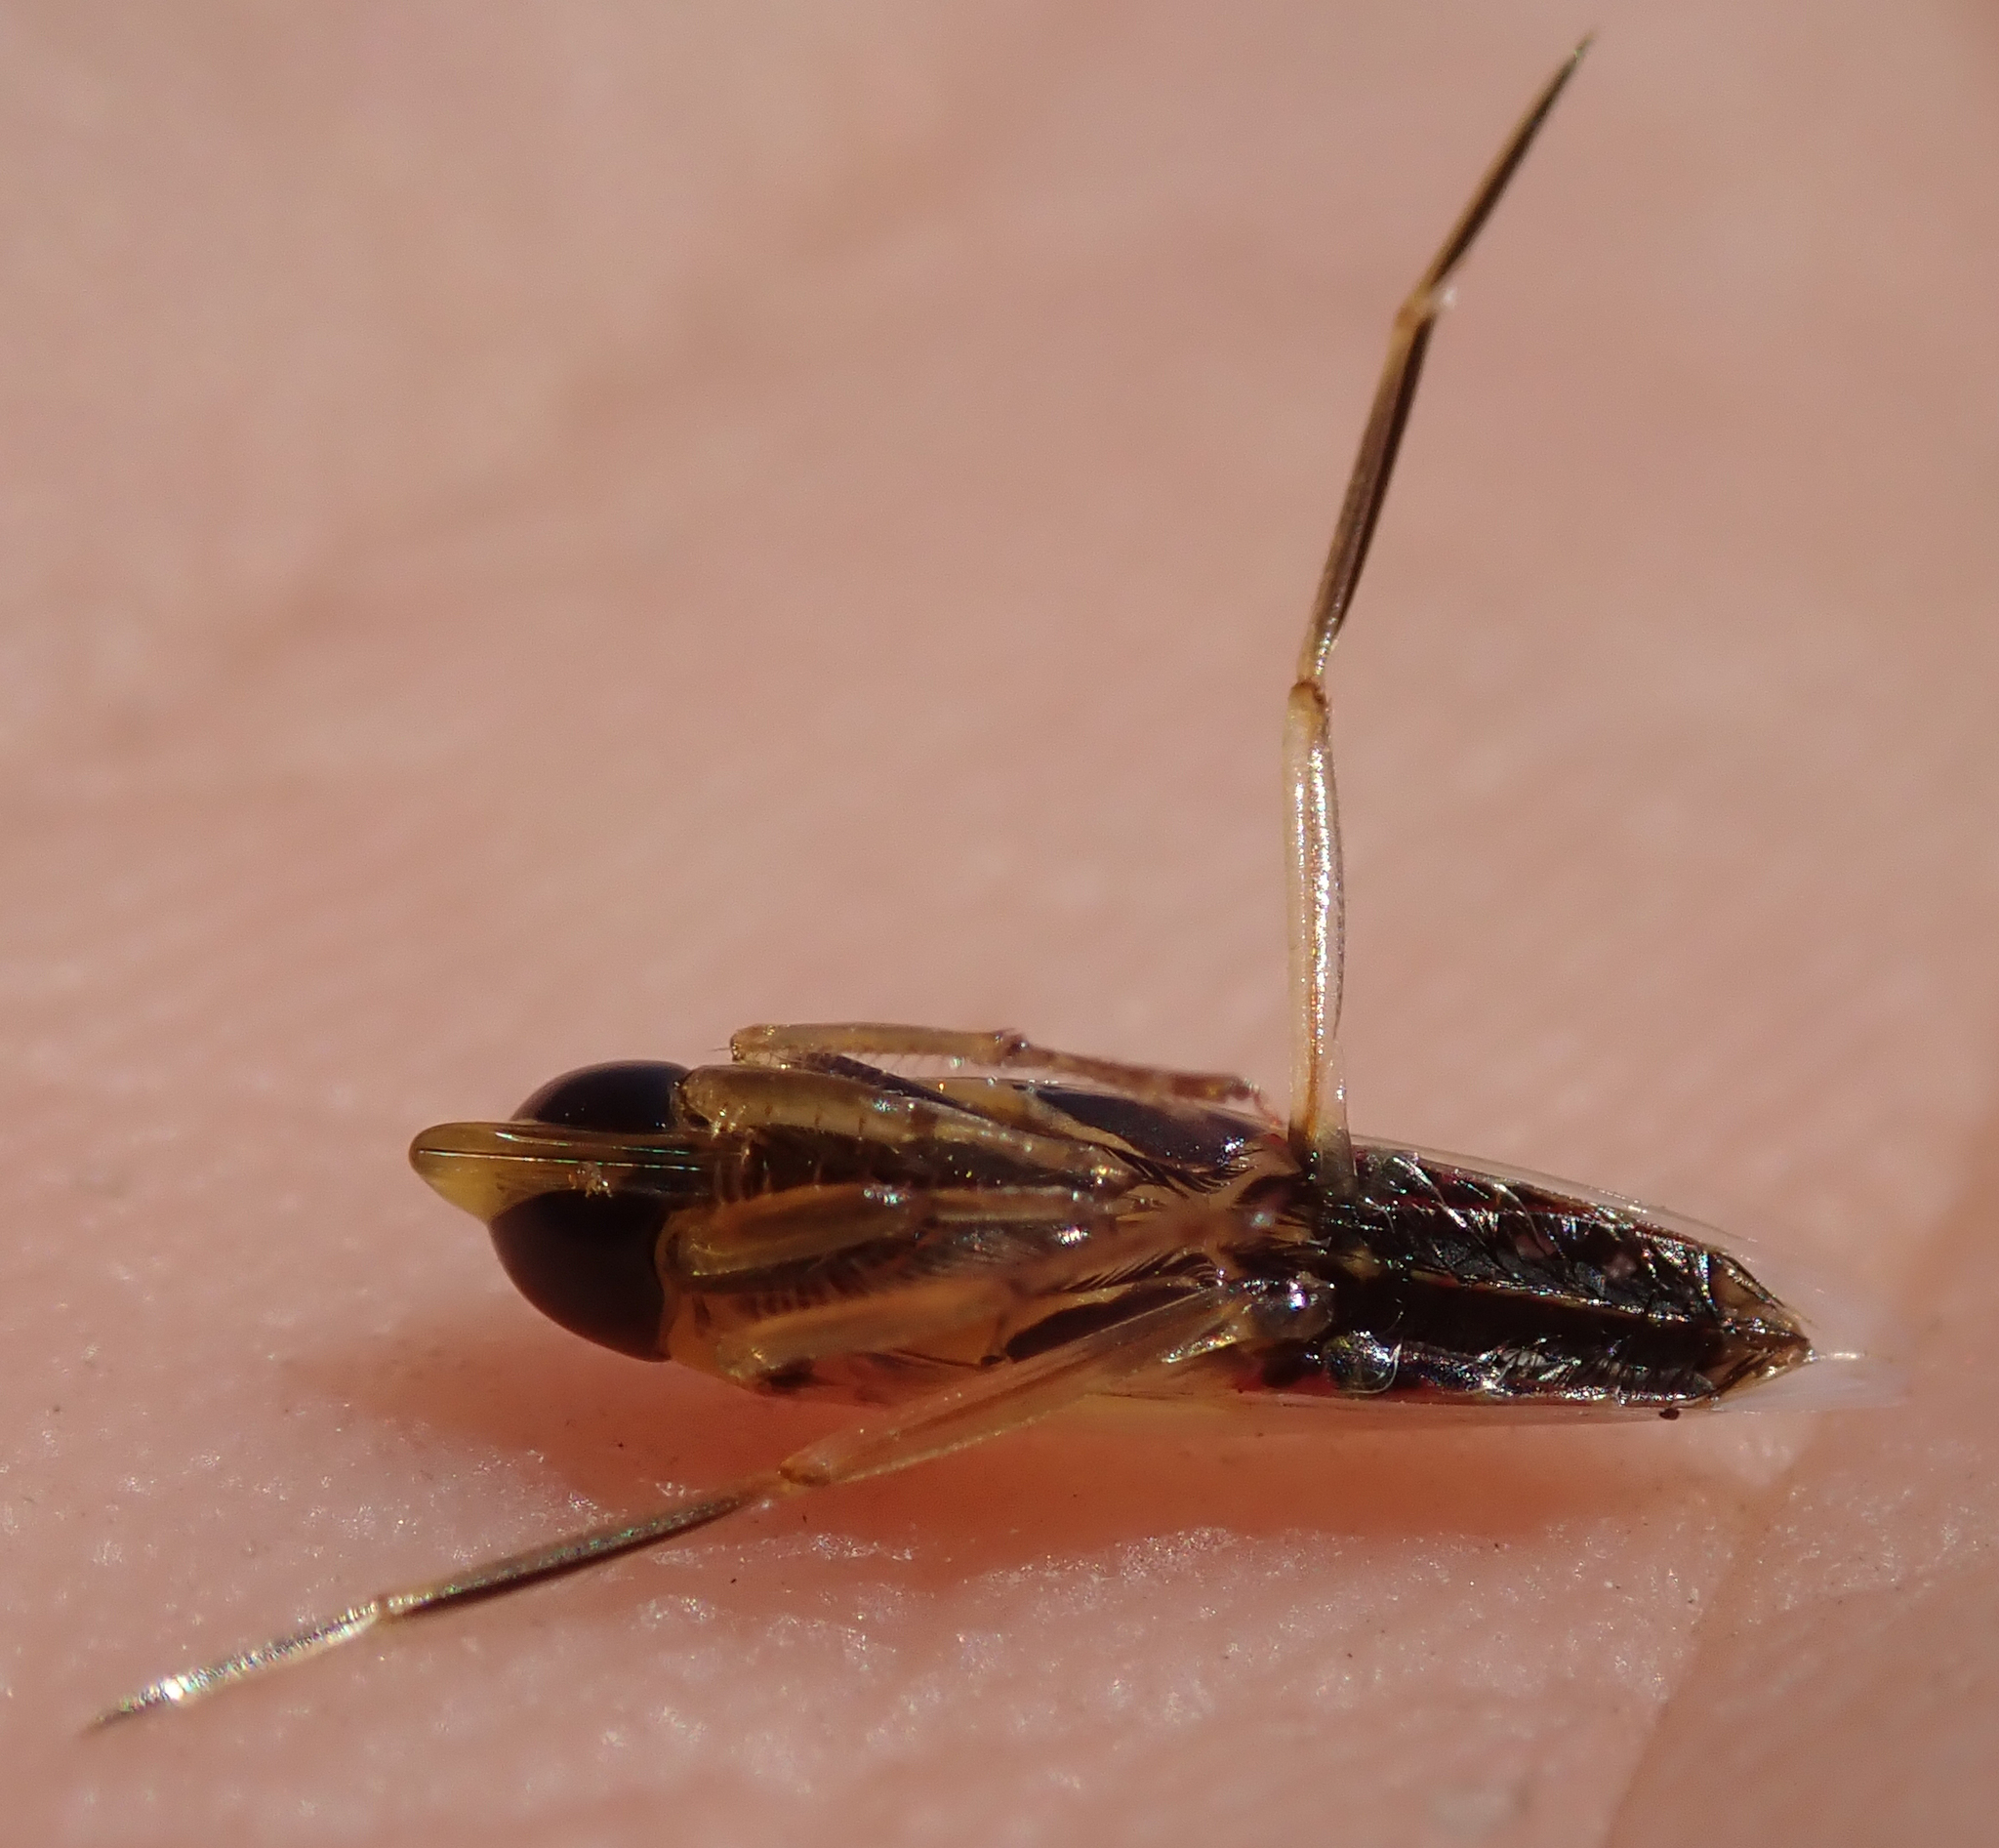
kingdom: Animalia
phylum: Arthropoda
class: Insecta
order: Hemiptera
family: Notonectidae
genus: Anisops
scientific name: Anisops sardeus
